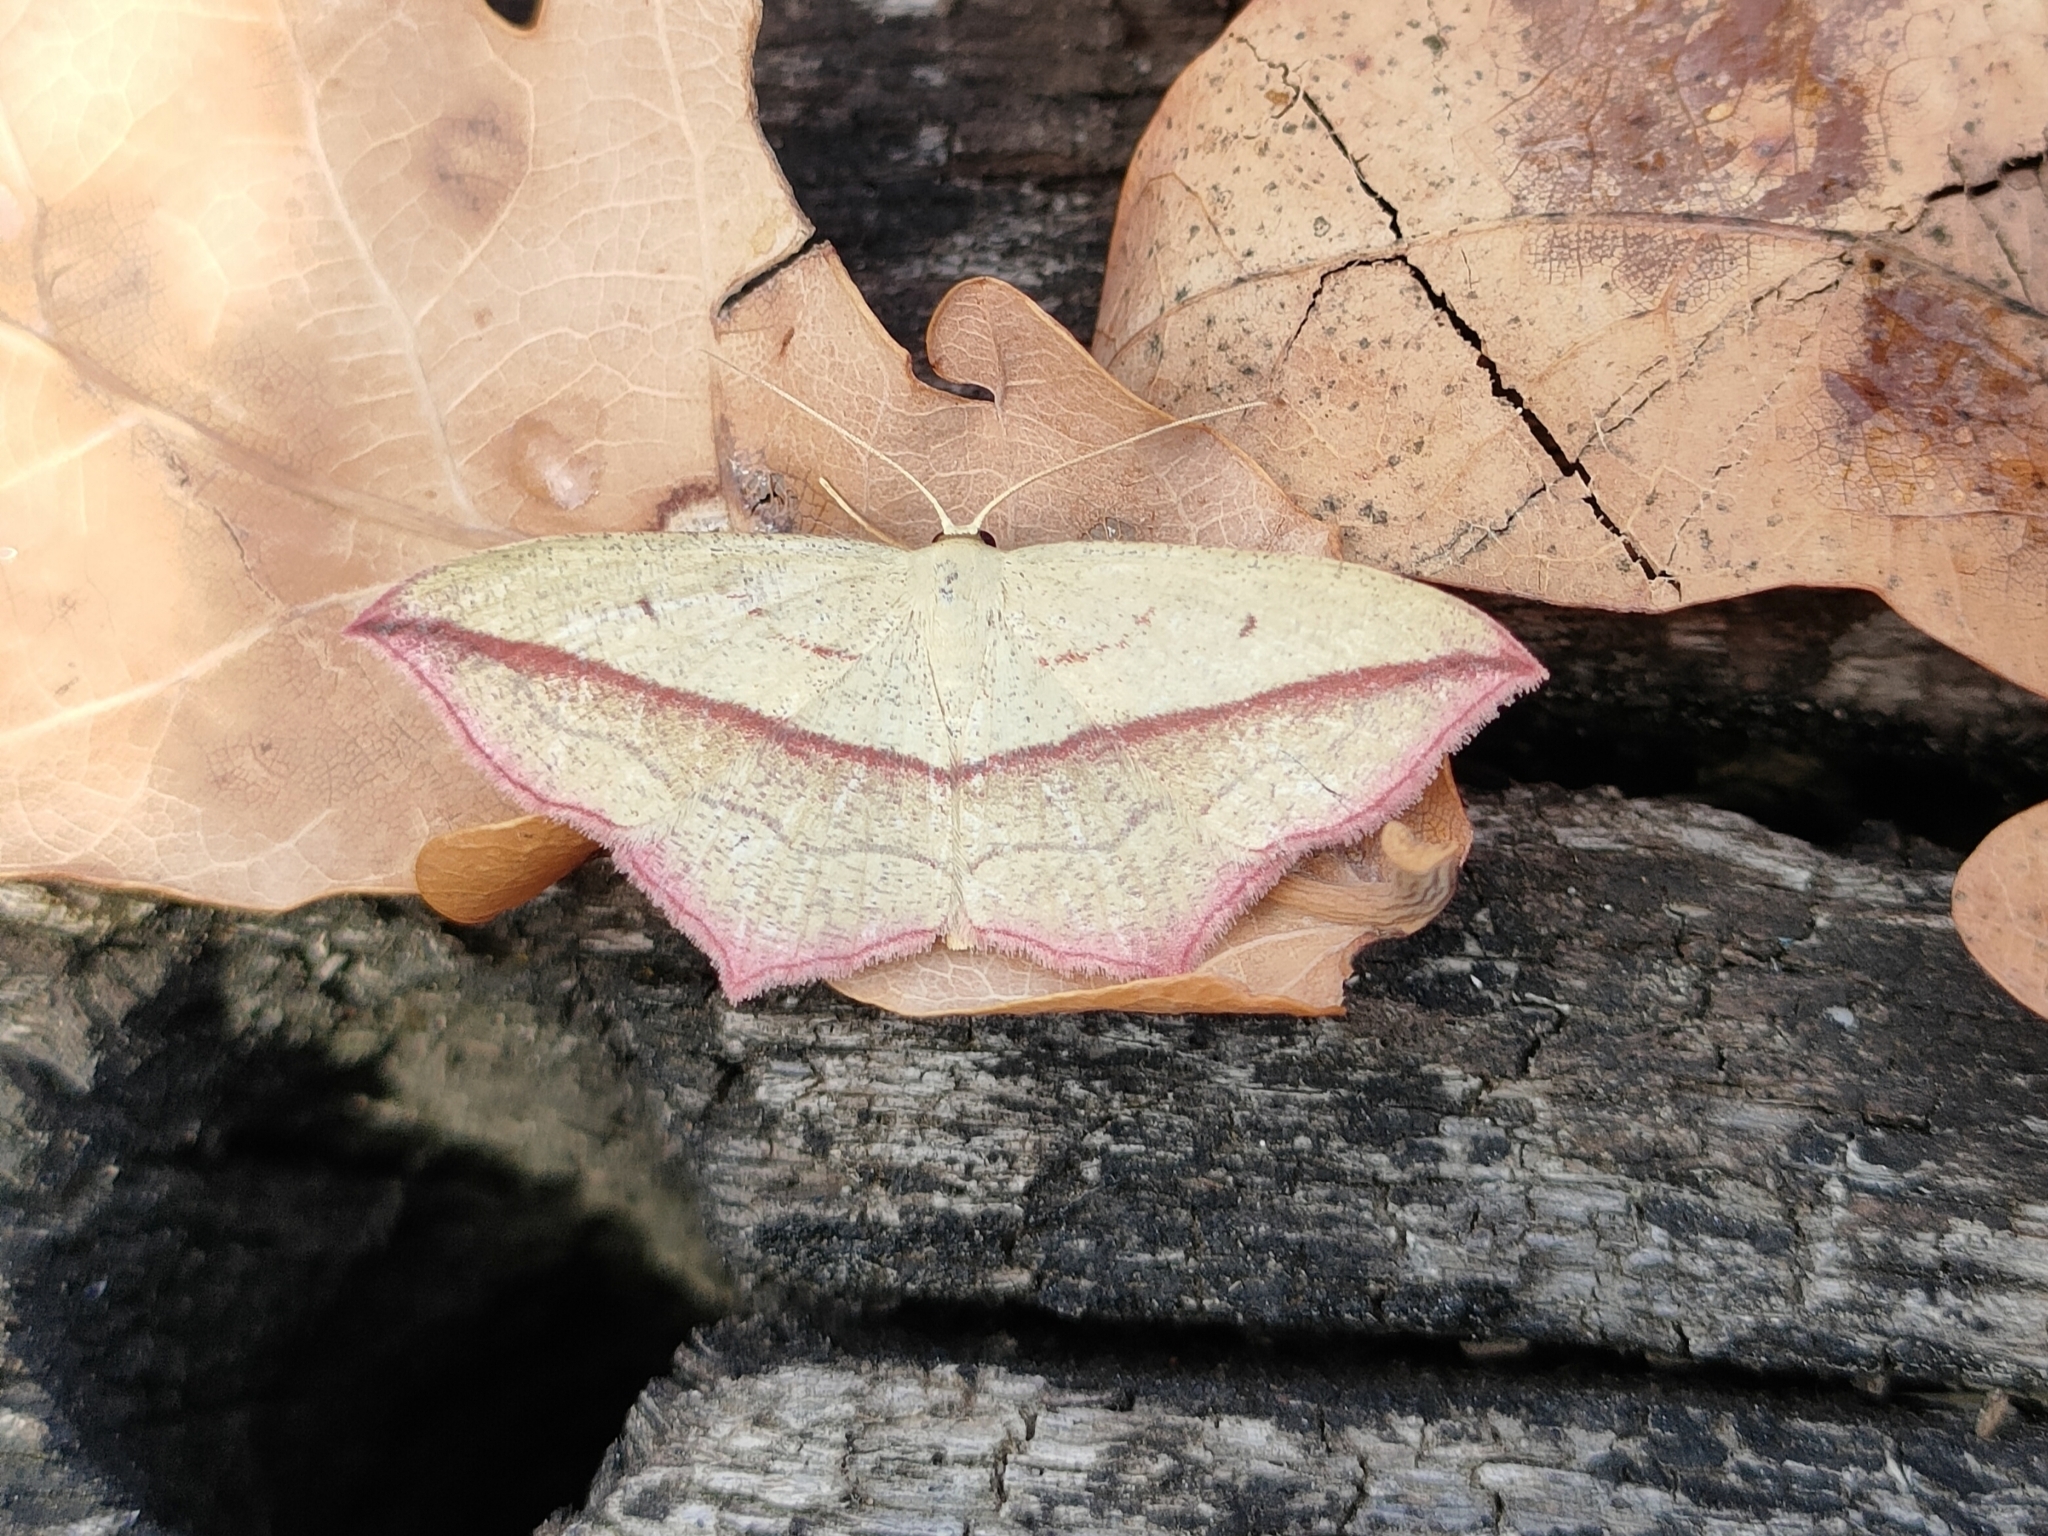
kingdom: Animalia
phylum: Arthropoda
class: Insecta
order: Lepidoptera
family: Geometridae
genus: Timandra
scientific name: Timandra comae
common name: Blood-vein
